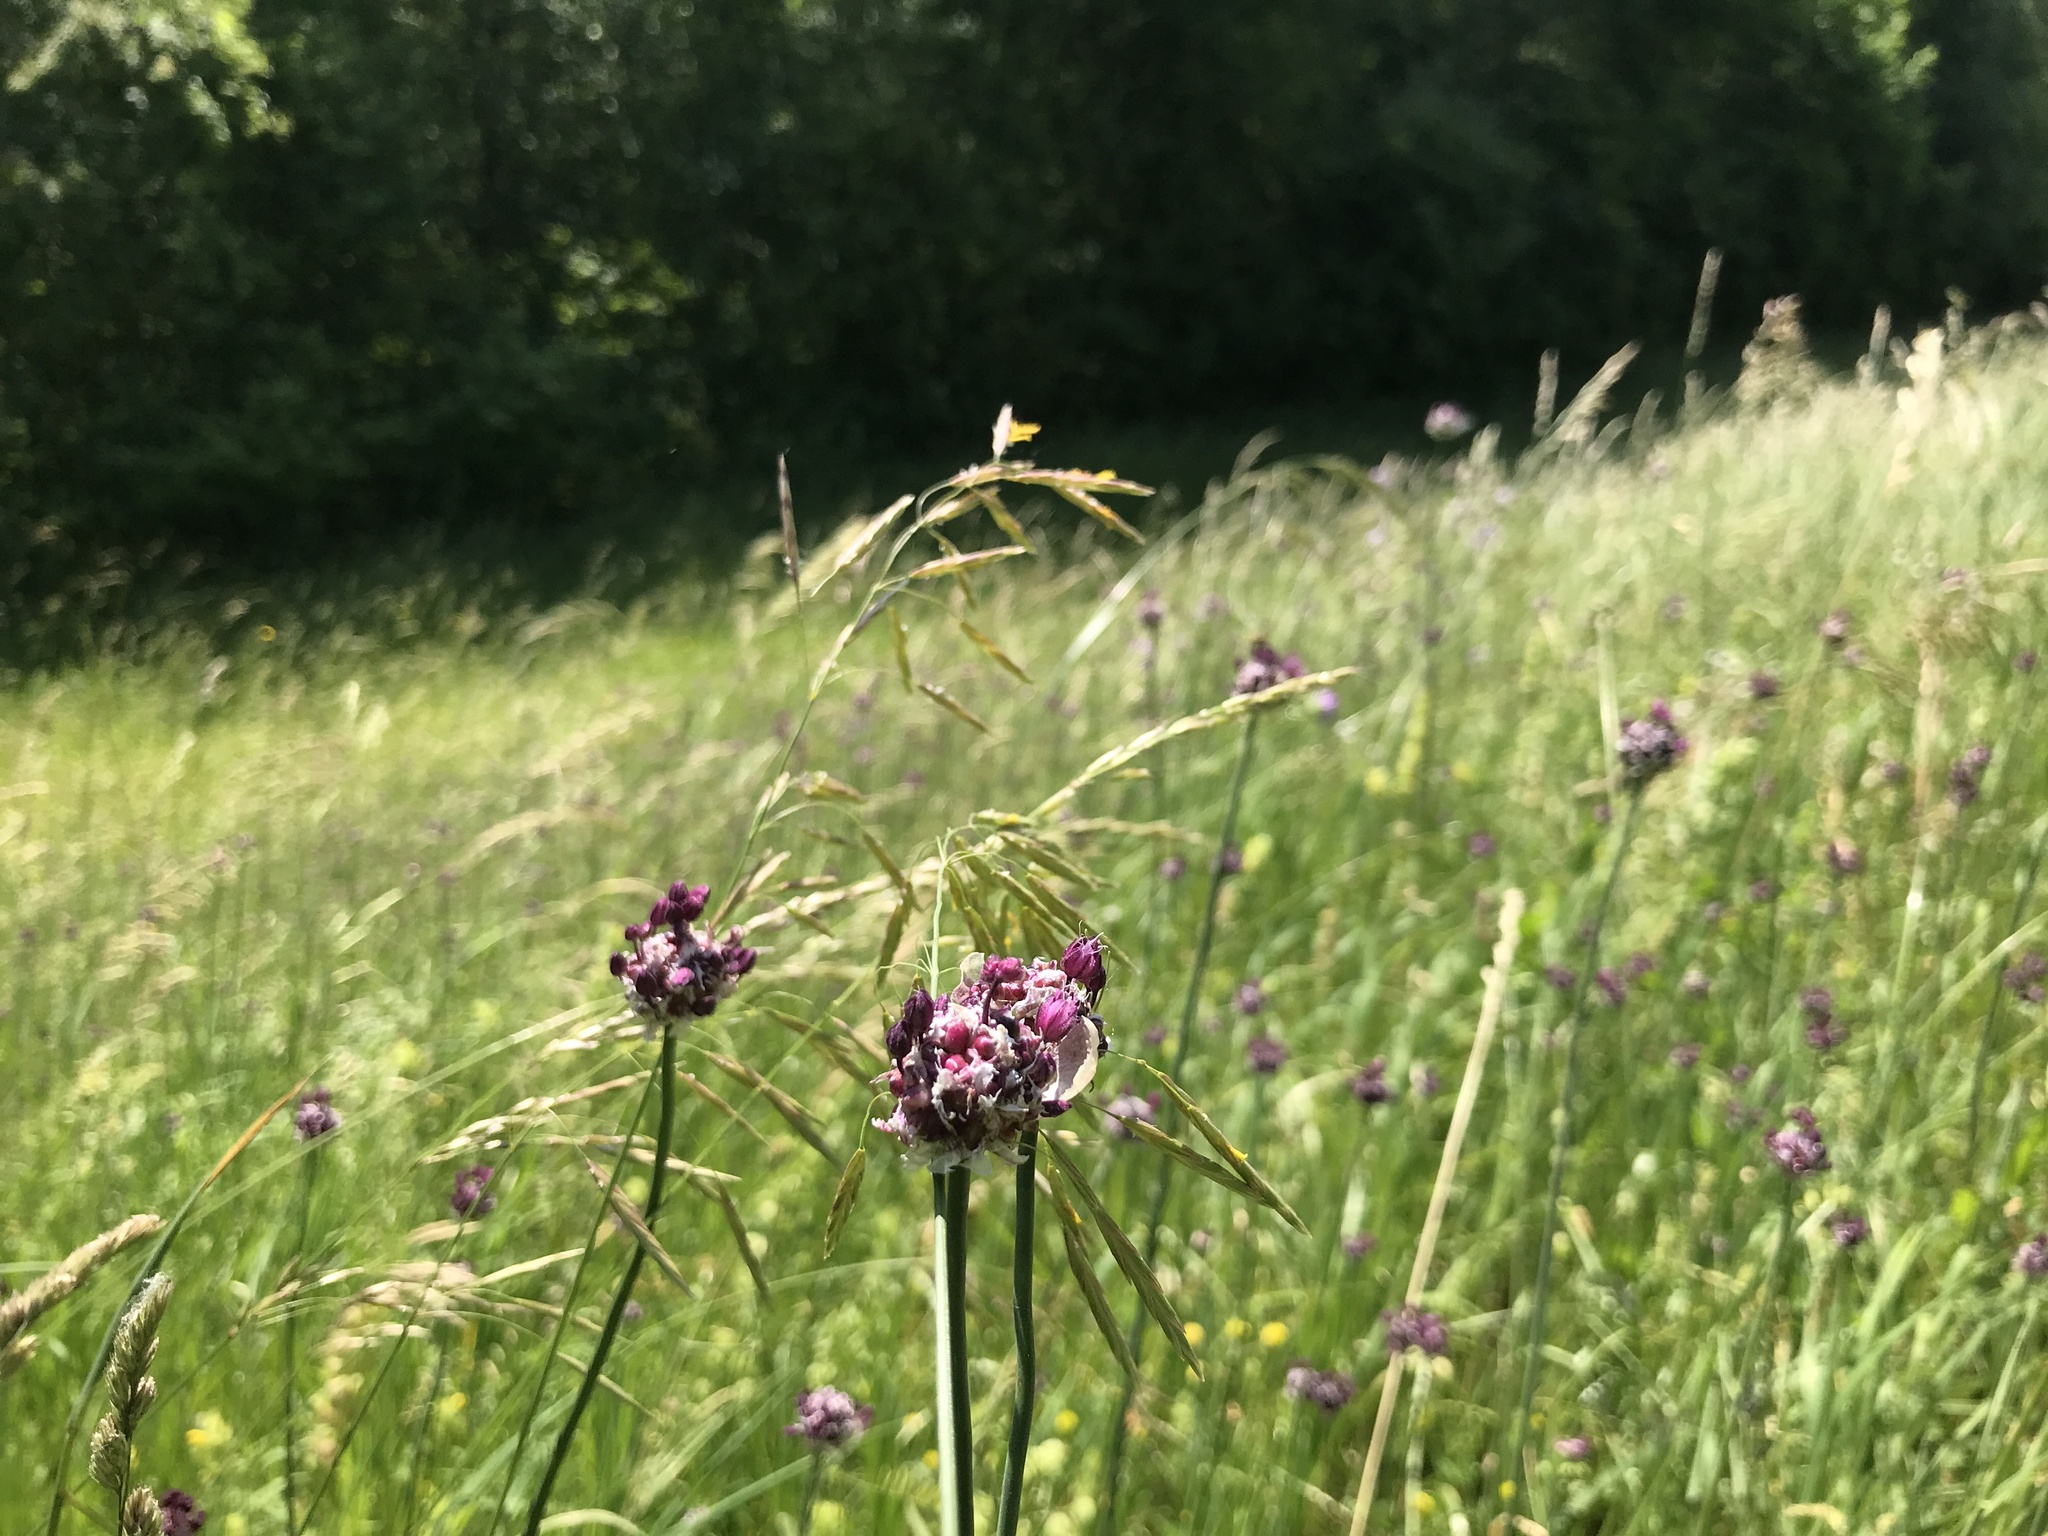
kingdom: Plantae
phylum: Tracheophyta
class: Liliopsida
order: Asparagales
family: Amaryllidaceae
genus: Allium
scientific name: Allium scorodoprasum
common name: Sand leek
